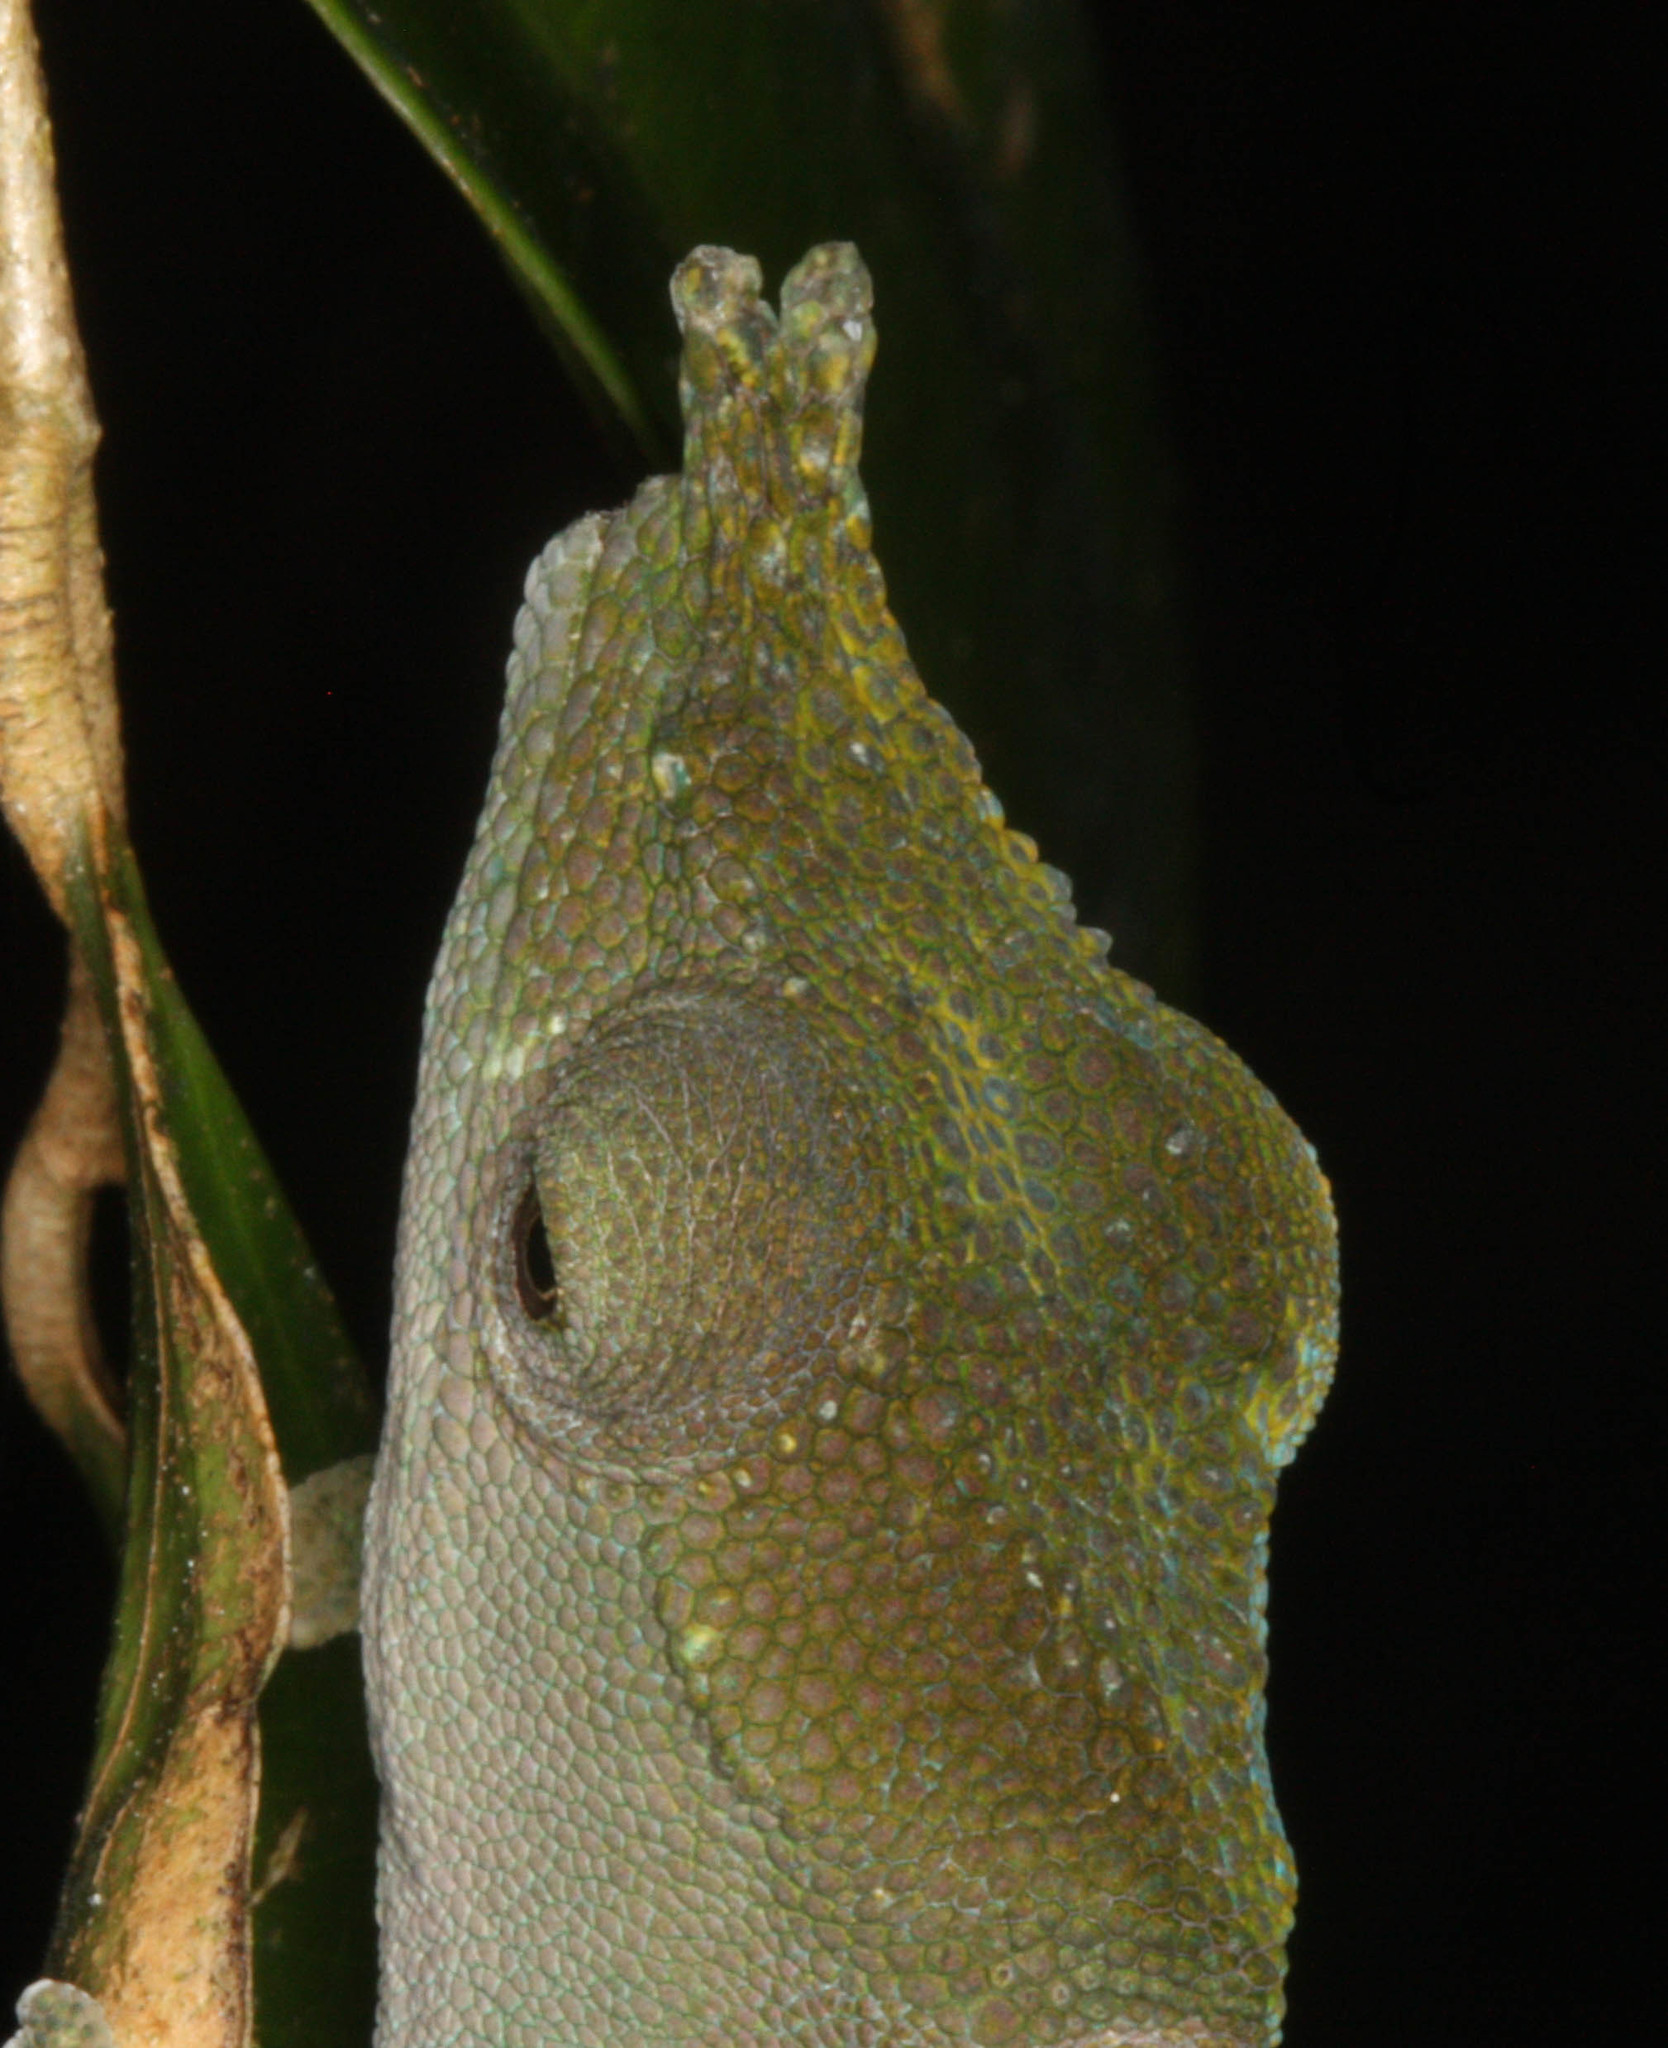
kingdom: Animalia
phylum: Chordata
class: Squamata
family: Chamaeleonidae
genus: Calumma
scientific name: Calumma furcifer
